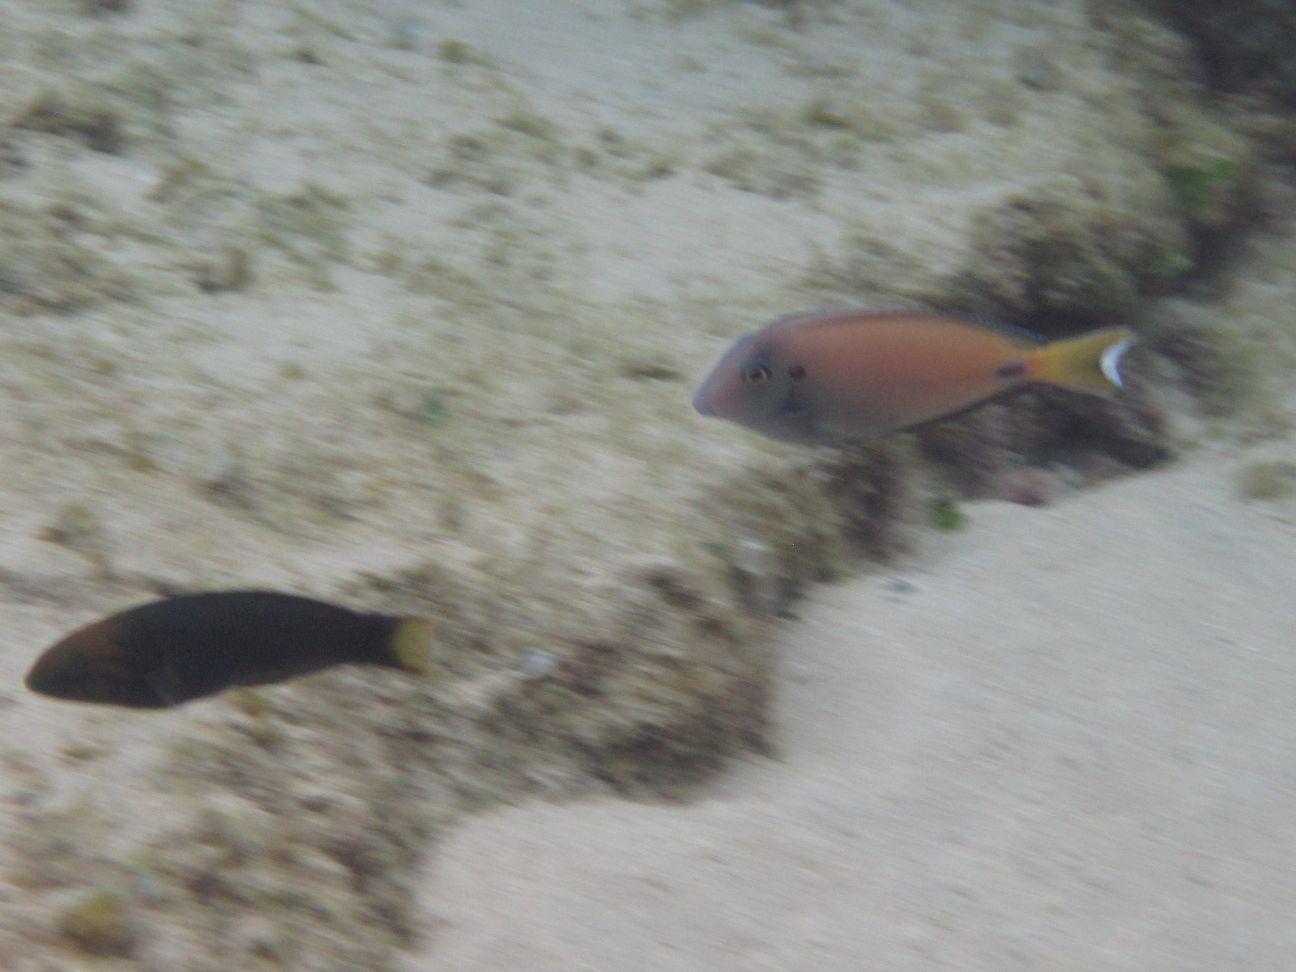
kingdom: Animalia
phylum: Chordata
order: Perciformes
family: Acanthuridae
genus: Acanthurus
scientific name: Acanthurus tennentii
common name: Doubleband surgeonfish
